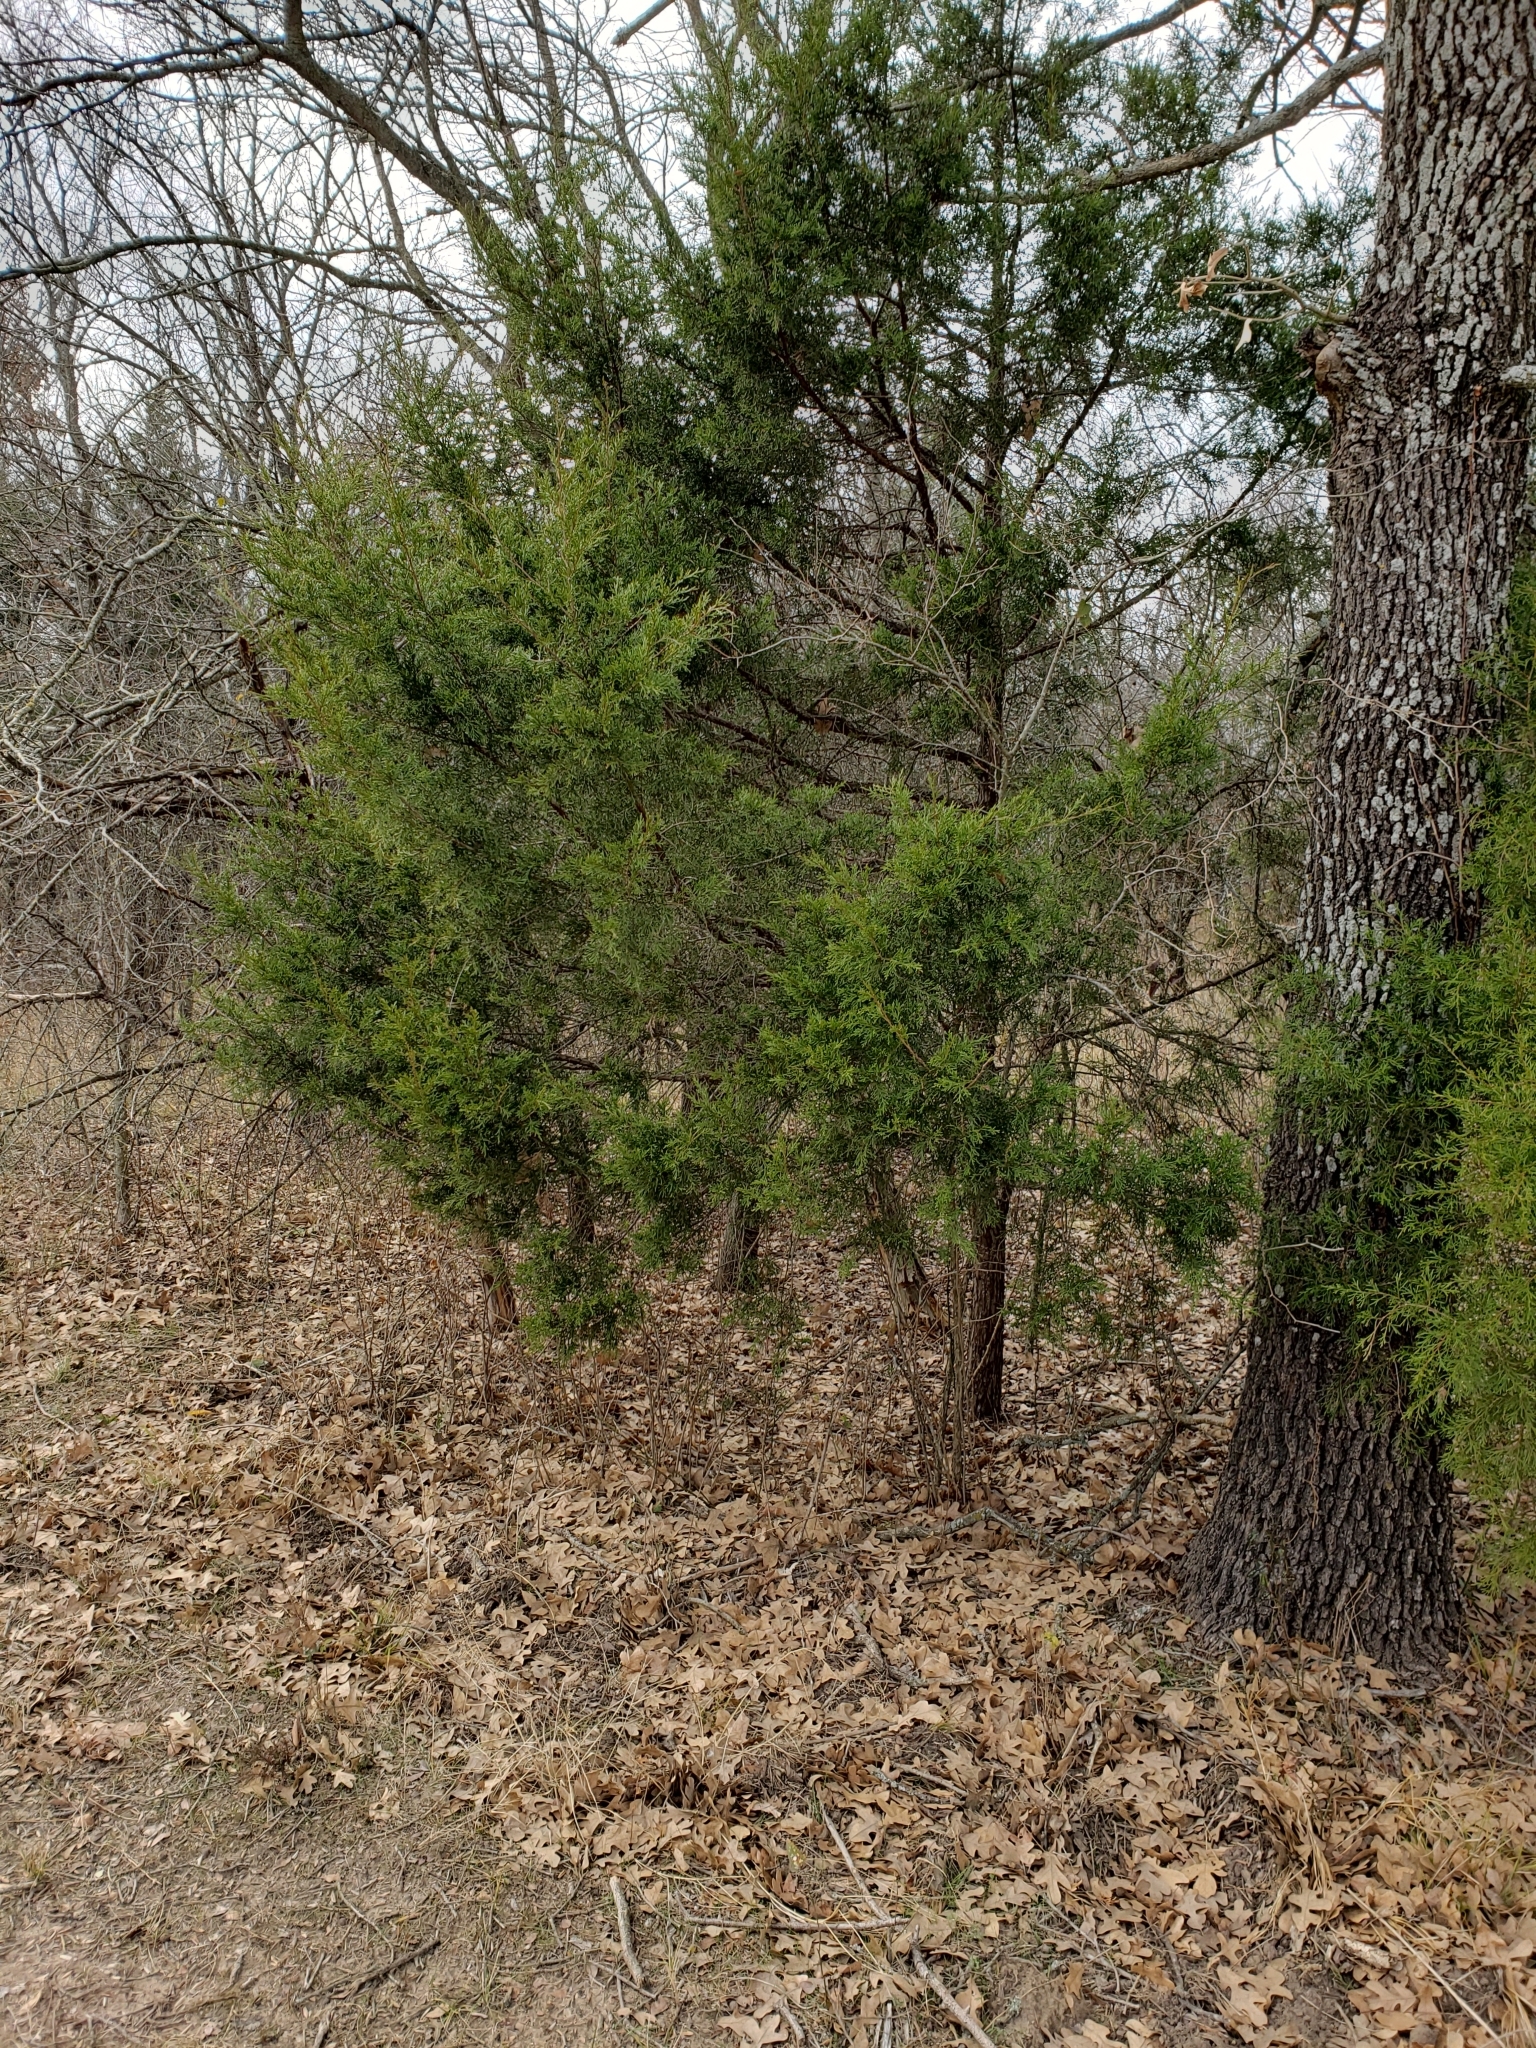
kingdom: Plantae
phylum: Tracheophyta
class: Pinopsida
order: Pinales
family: Cupressaceae
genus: Juniperus
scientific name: Juniperus virginiana
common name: Red juniper
